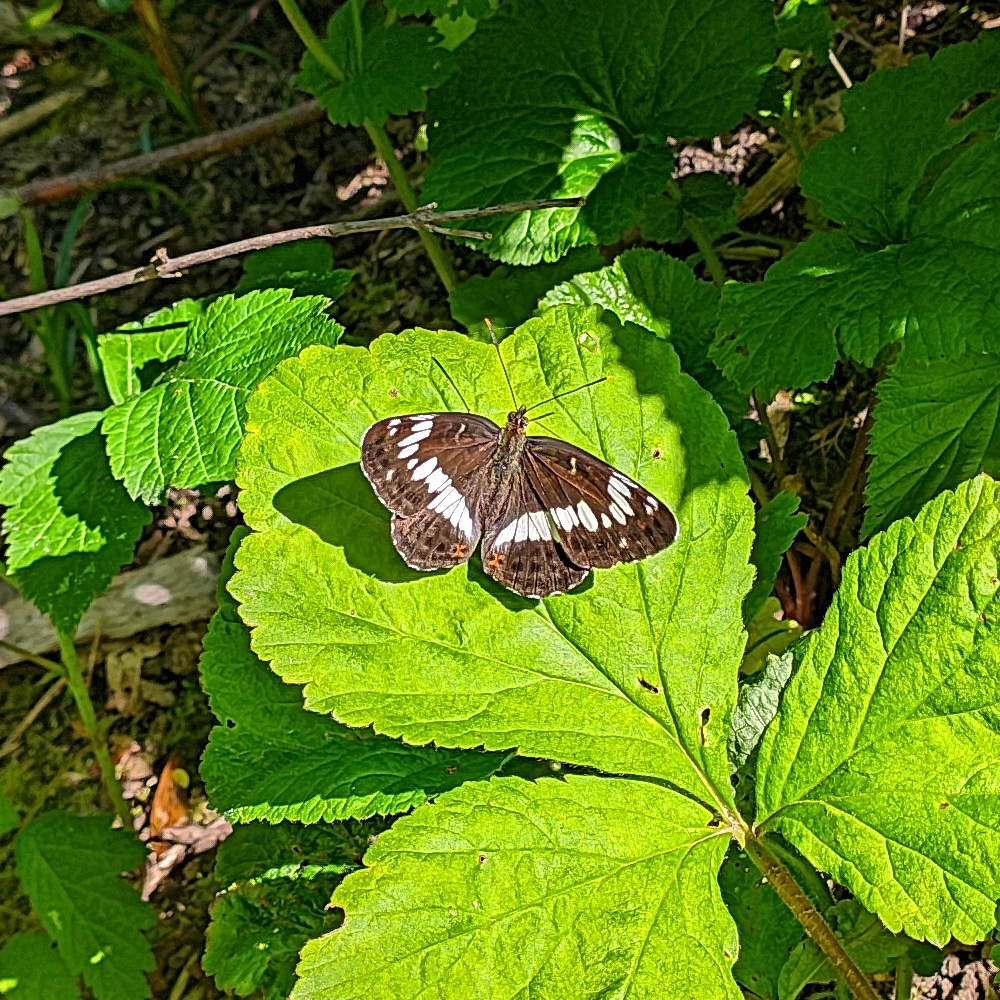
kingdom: Animalia
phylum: Arthropoda
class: Insecta
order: Lepidoptera
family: Nymphalidae
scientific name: Nymphalidae
